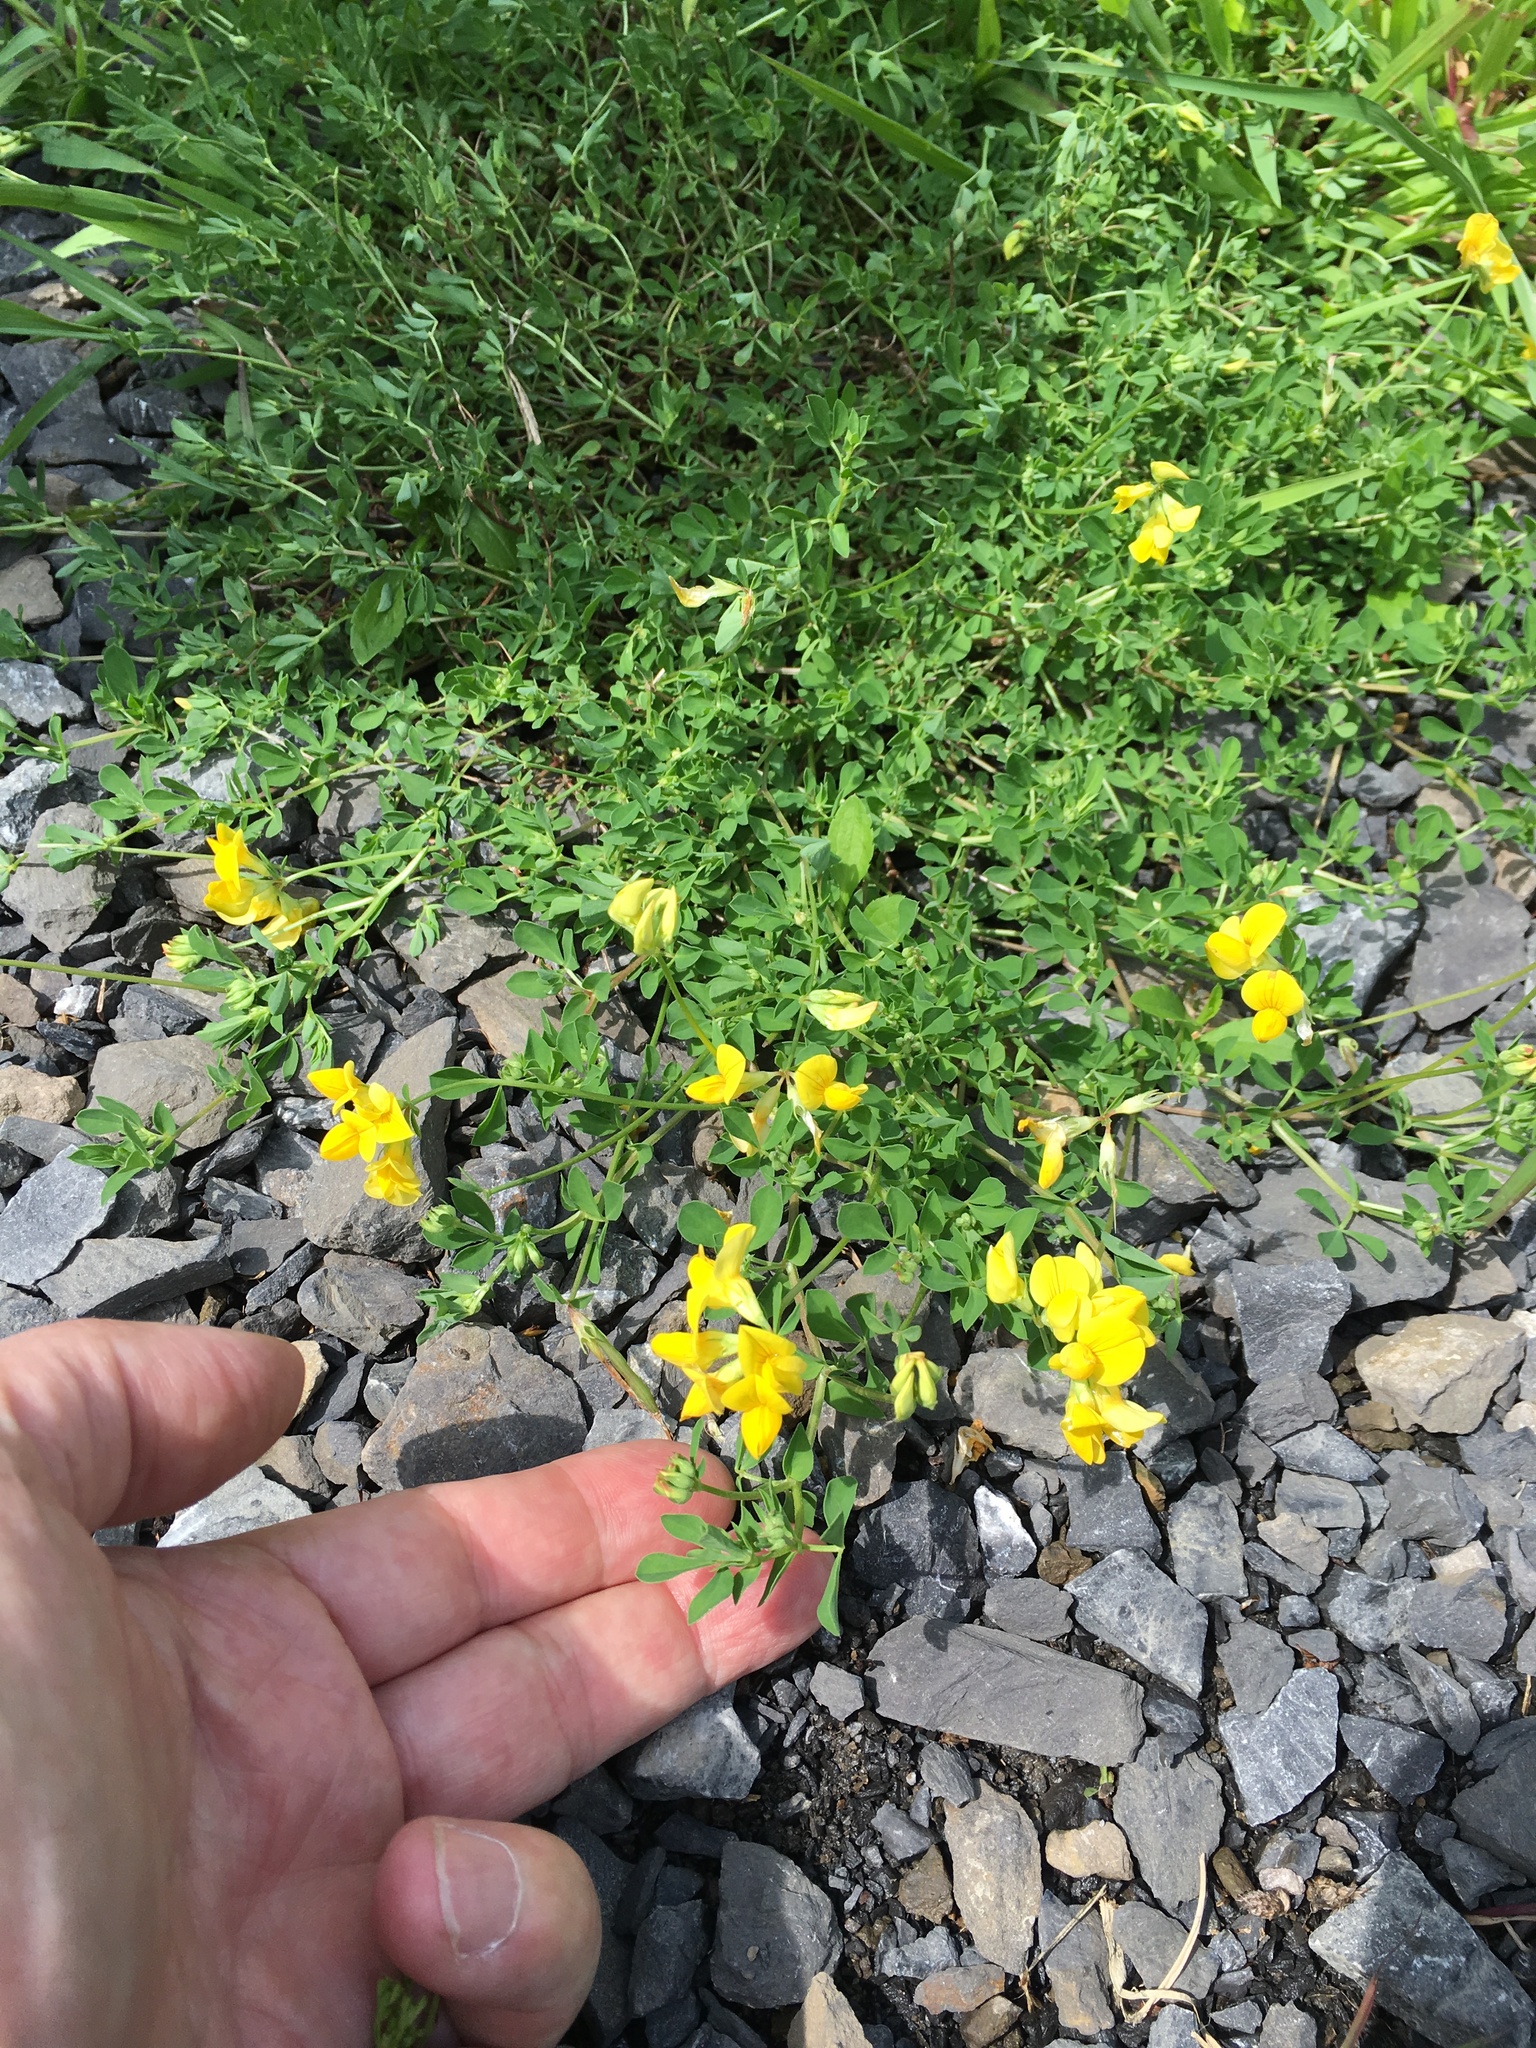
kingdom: Plantae
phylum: Tracheophyta
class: Magnoliopsida
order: Fabales
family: Fabaceae
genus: Lotus
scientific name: Lotus corniculatus
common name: Common bird's-foot-trefoil
